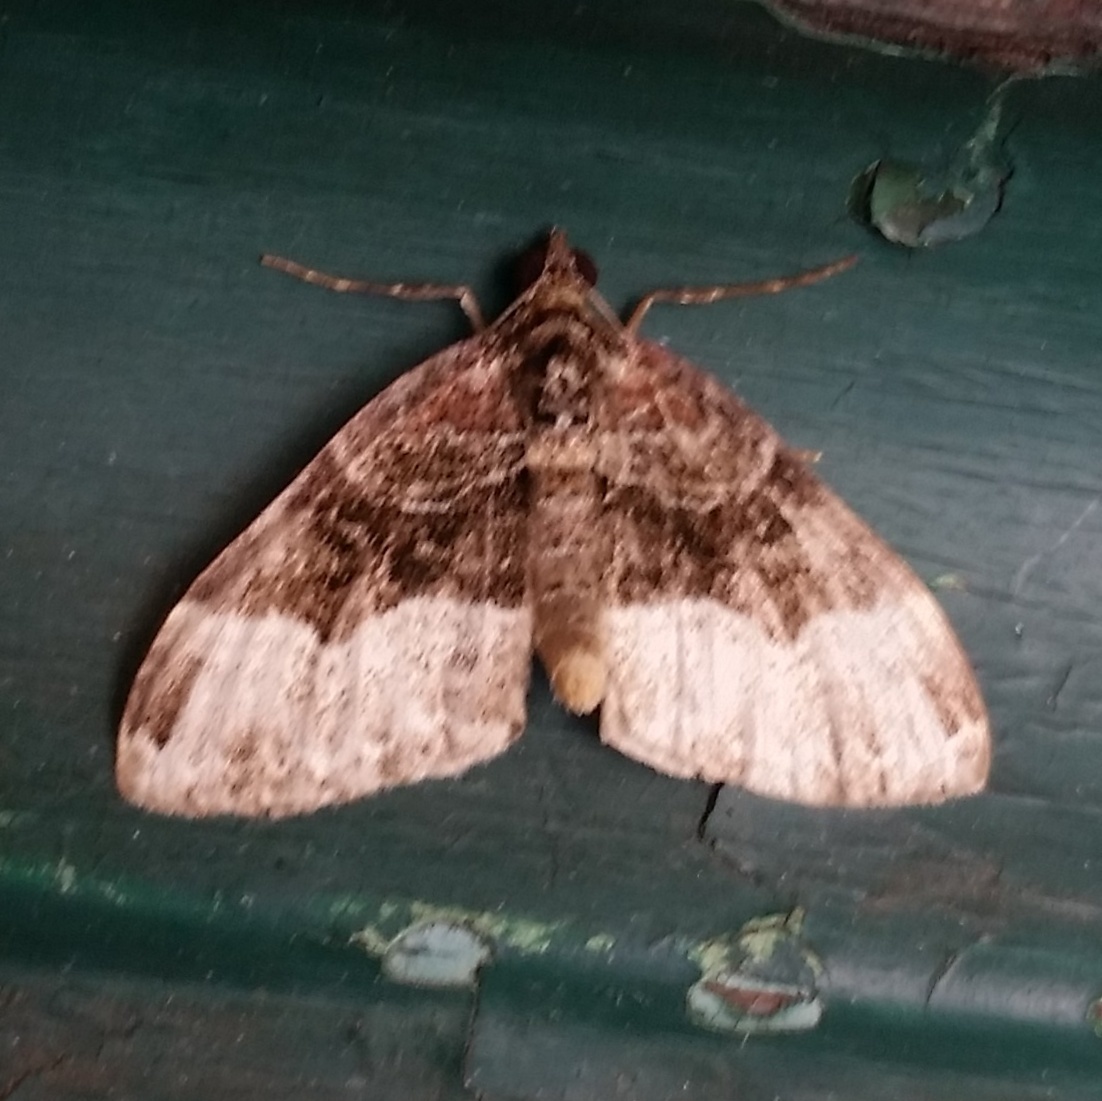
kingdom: Animalia
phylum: Arthropoda
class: Insecta
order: Lepidoptera
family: Geometridae
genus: Euphyia
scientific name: Euphyia intermediata
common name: Sharp-angled carpet
